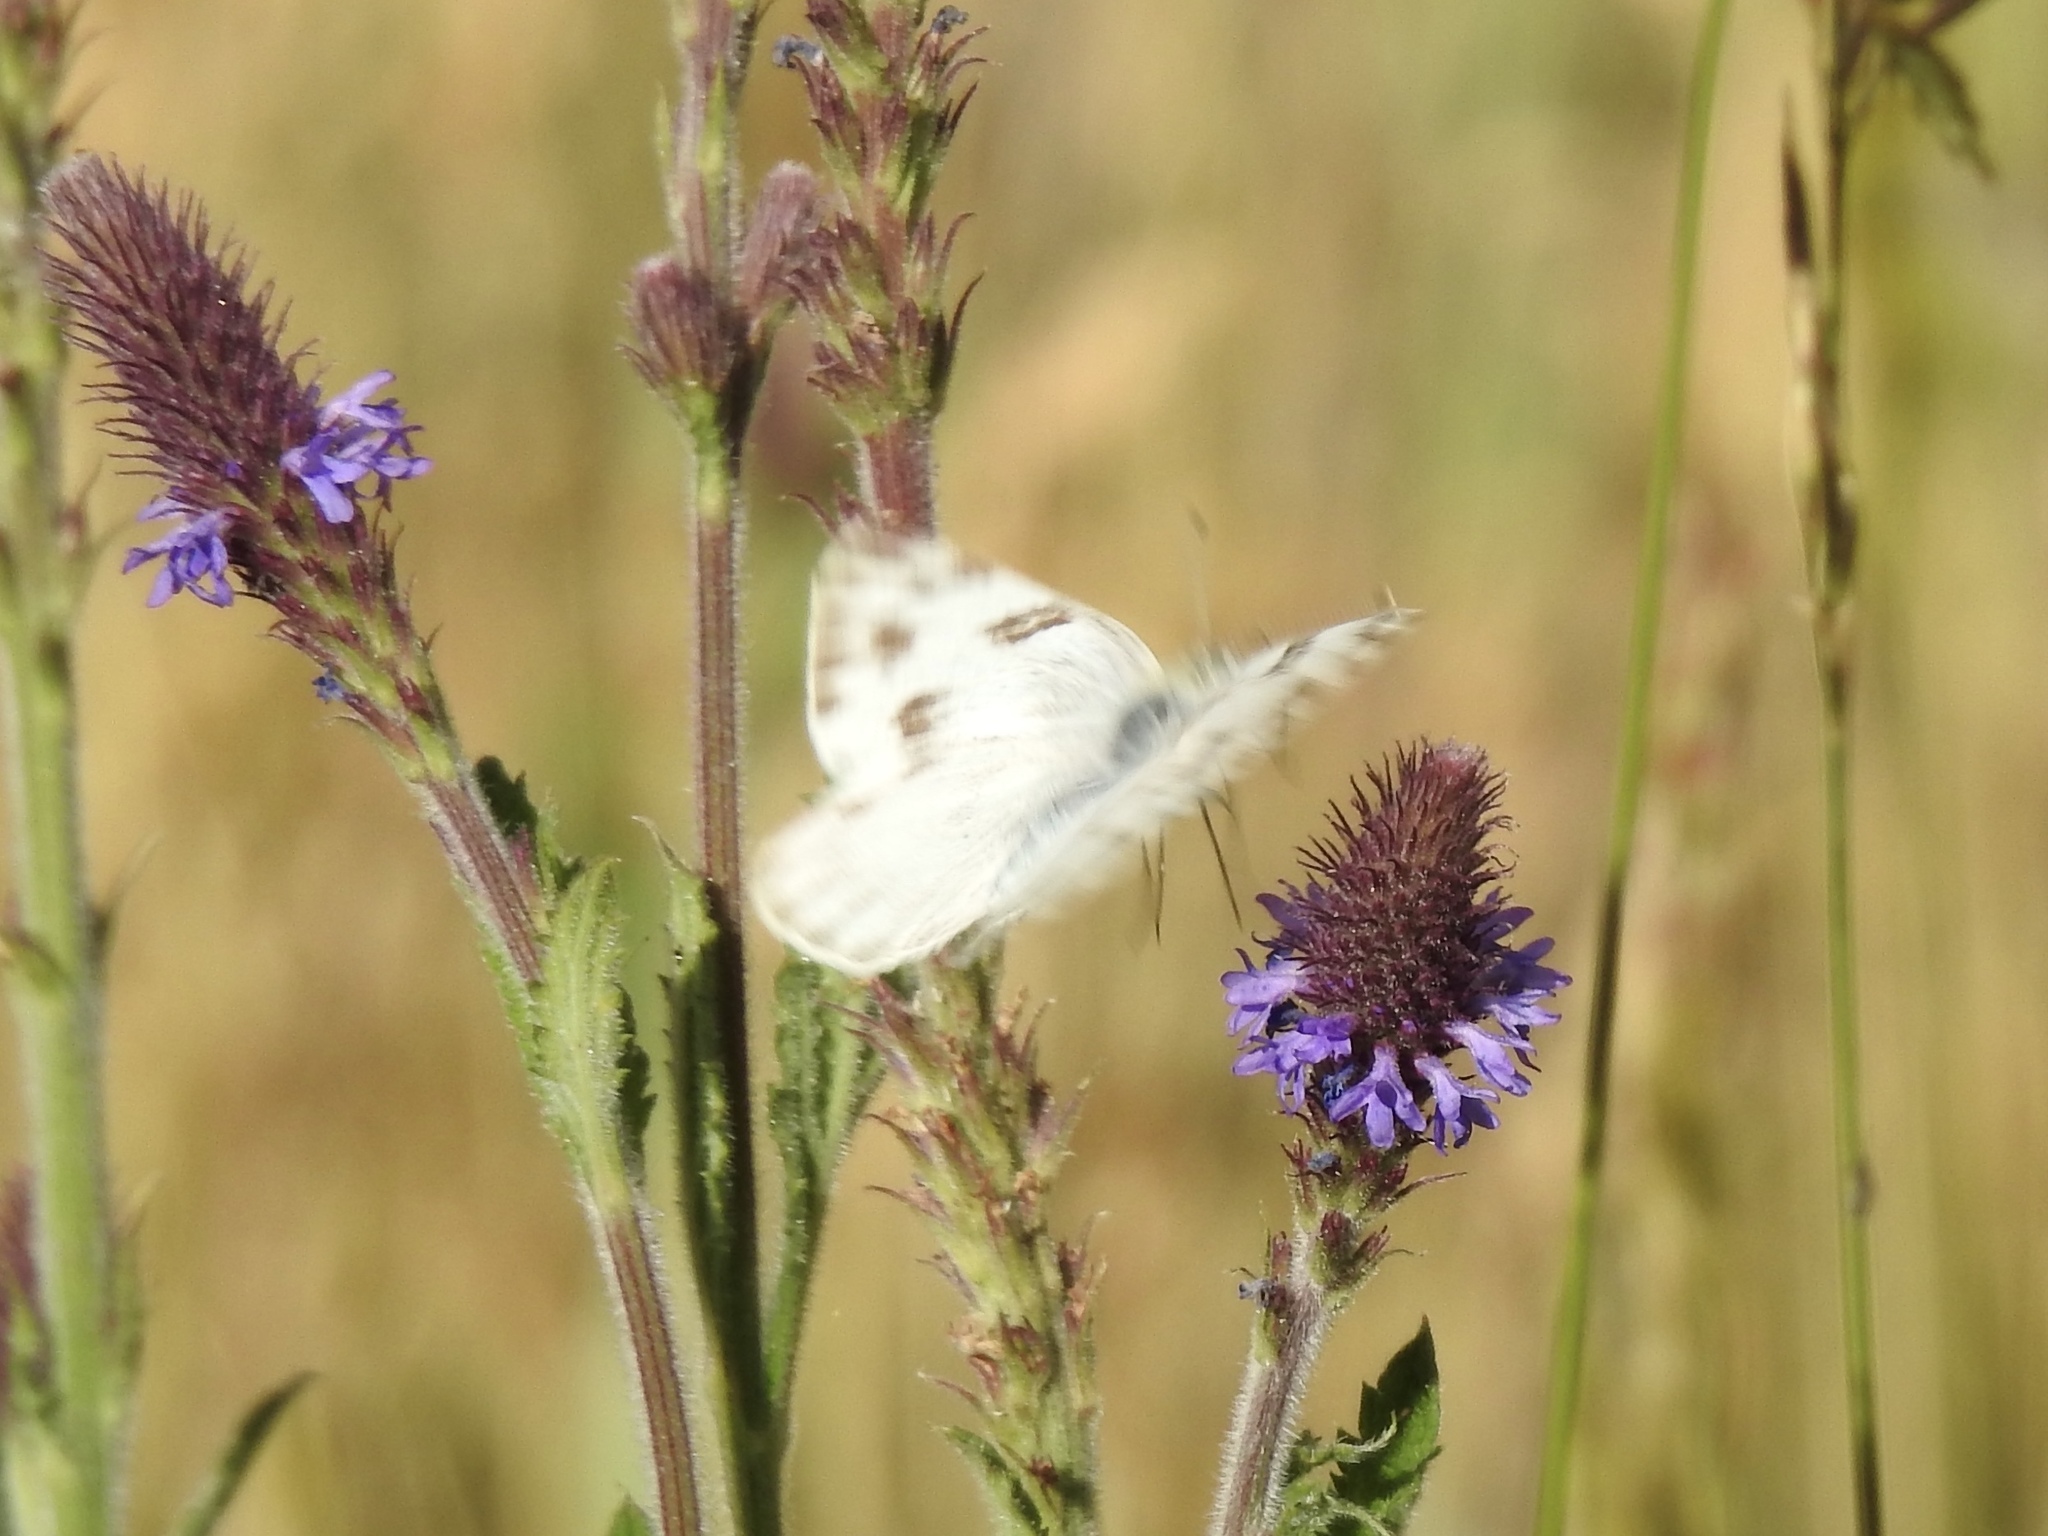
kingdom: Animalia
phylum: Arthropoda
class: Insecta
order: Lepidoptera
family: Pieridae
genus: Pontia
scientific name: Pontia protodice
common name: Checkered white
